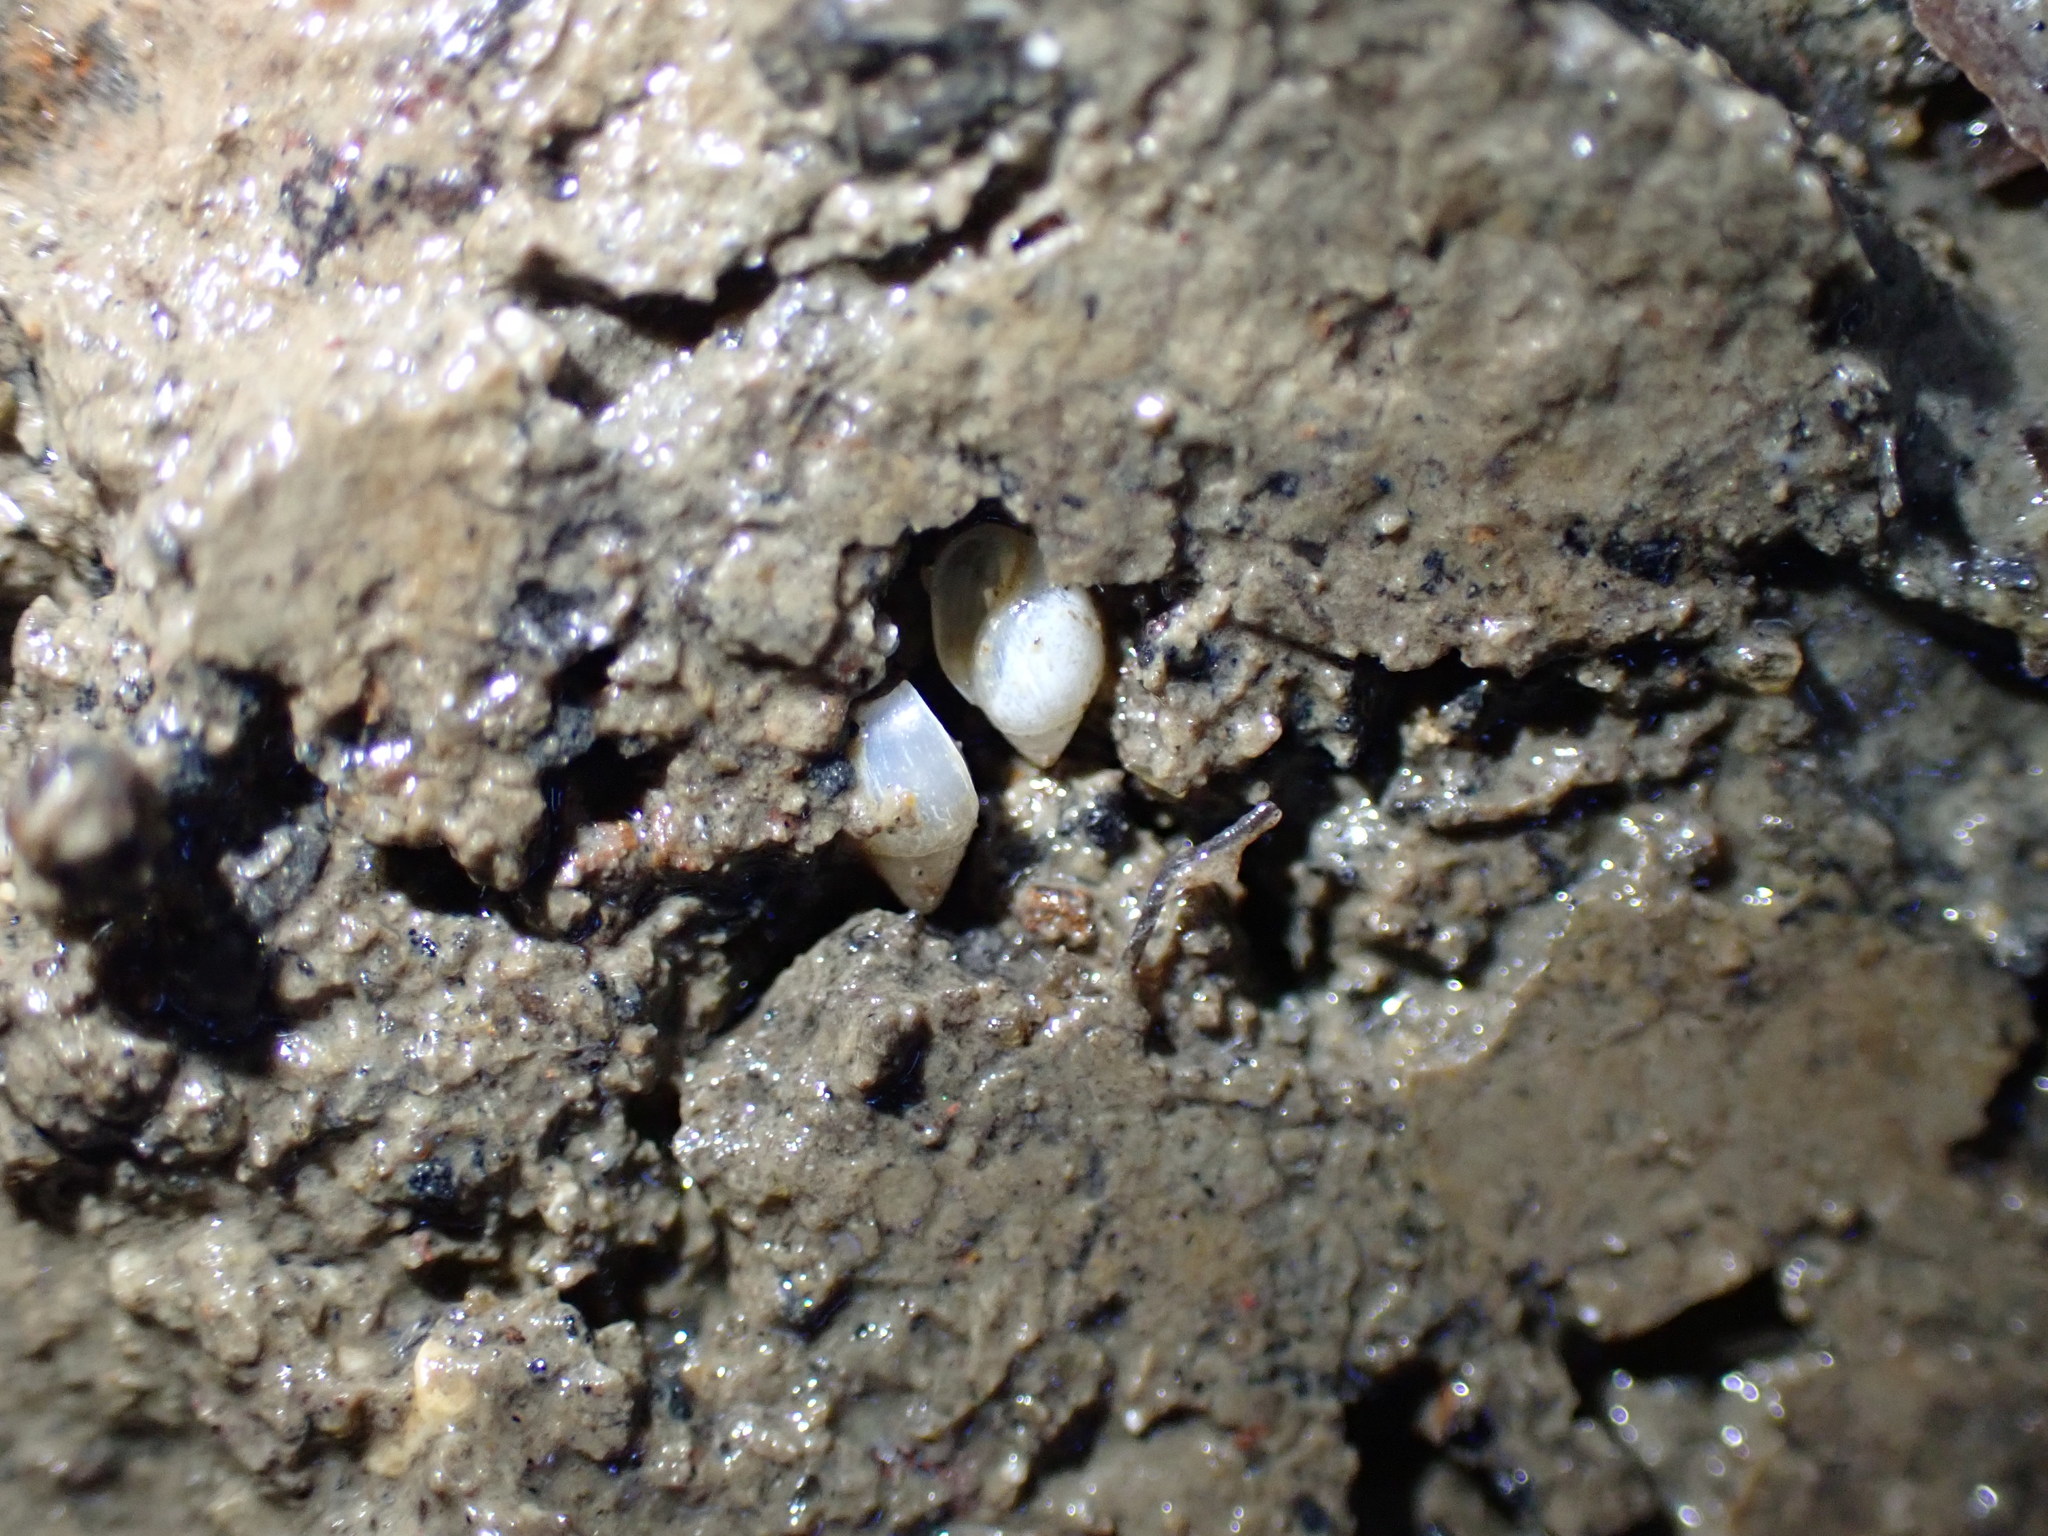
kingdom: Animalia
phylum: Mollusca
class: Gastropoda
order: Ellobiida
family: Ellobiidae
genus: Leuconopsis
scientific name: Leuconopsis obsoleta
